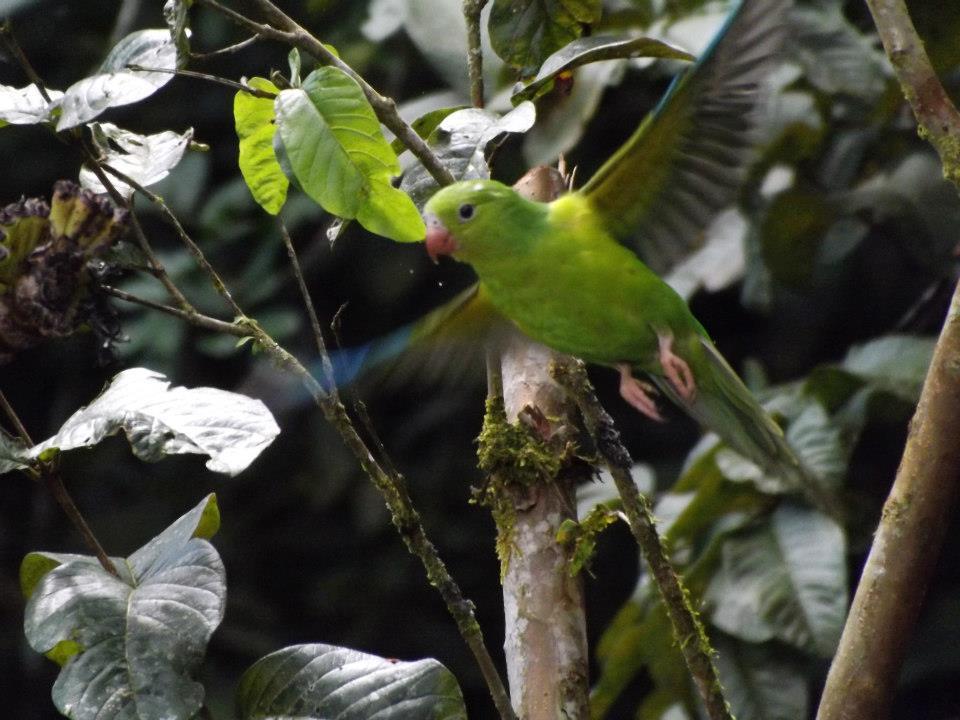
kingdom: Animalia
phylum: Chordata
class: Aves
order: Psittaciformes
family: Psittacidae
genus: Brotogeris
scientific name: Brotogeris tirica
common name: Plain parakeet
